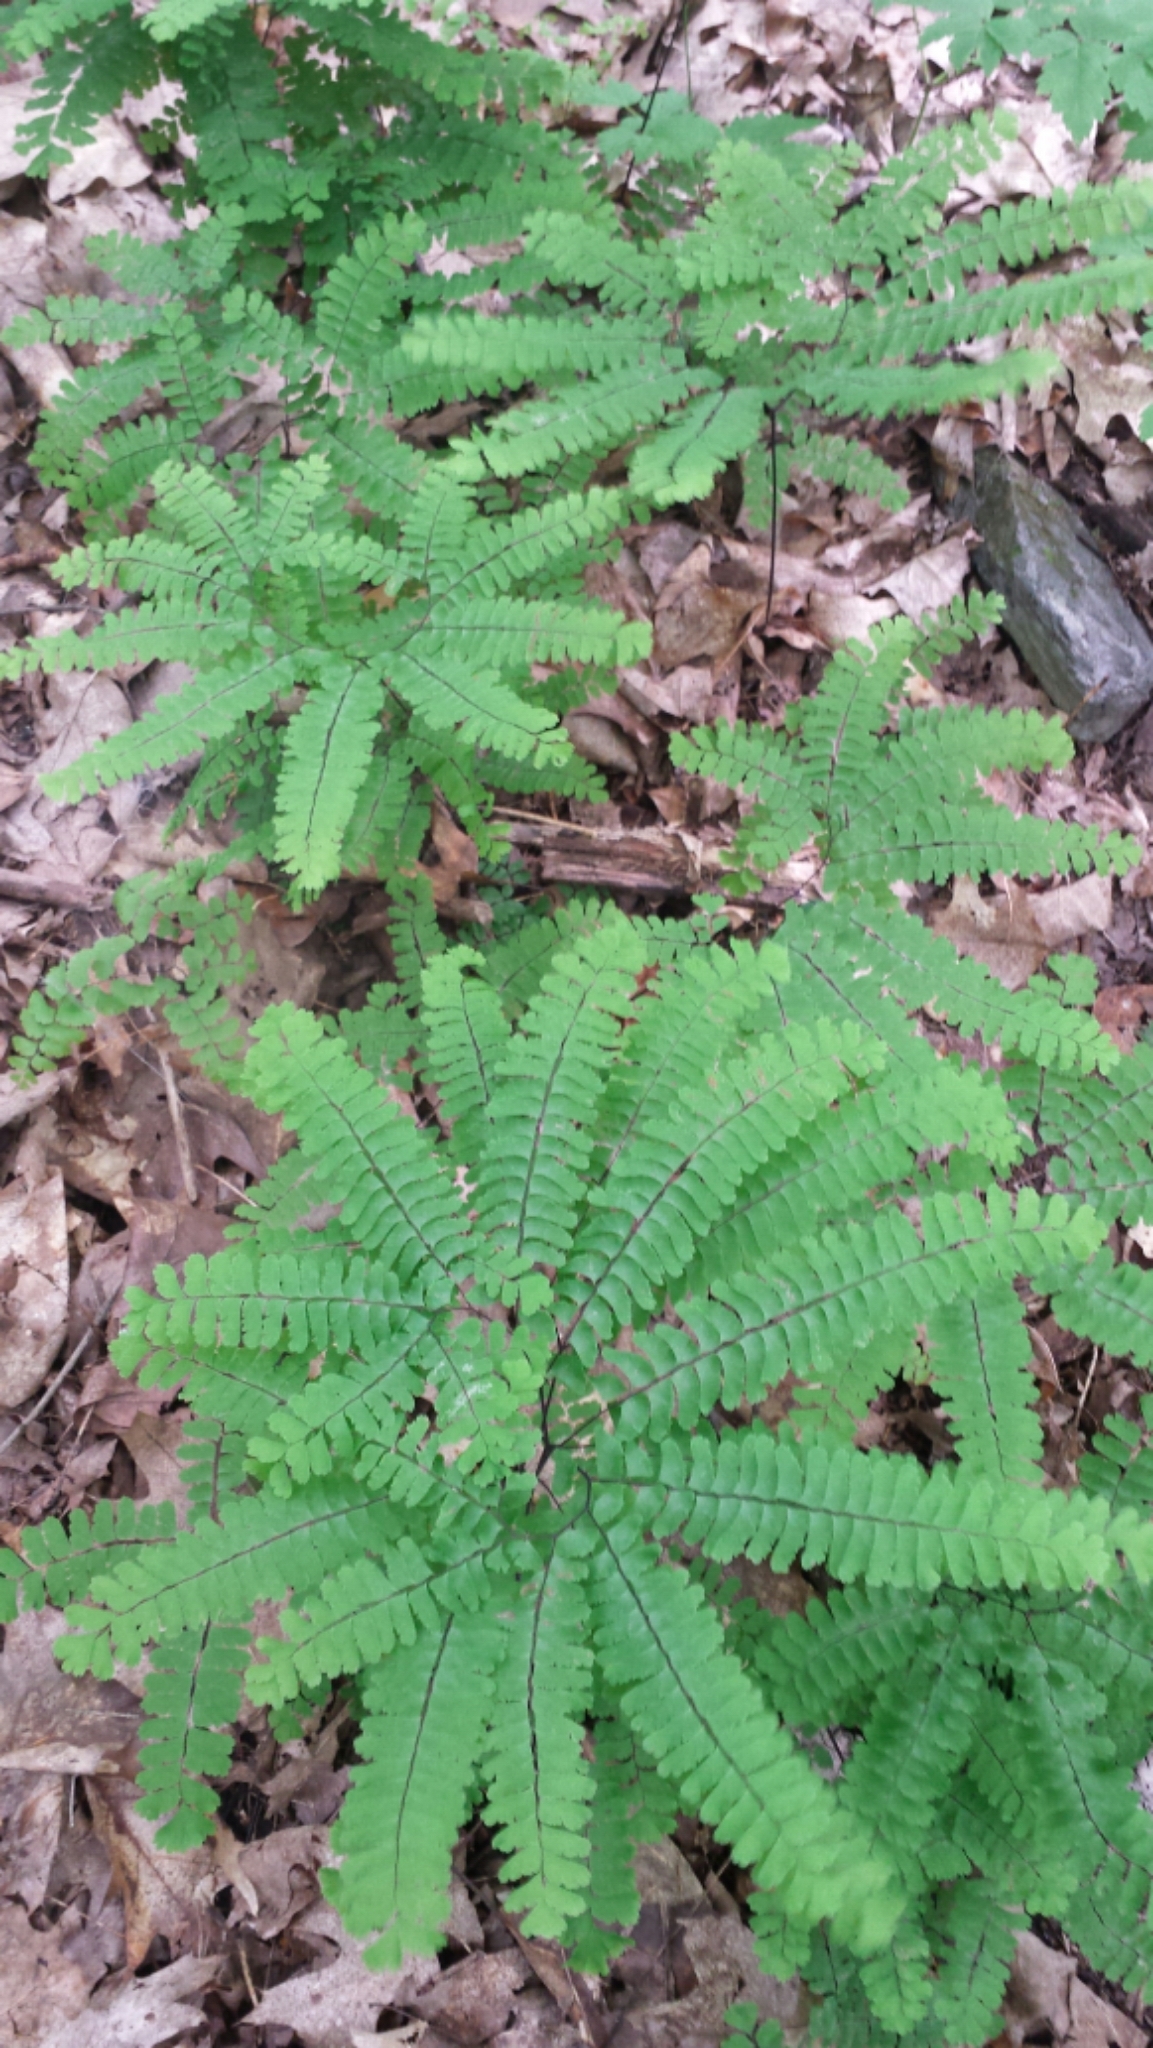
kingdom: Plantae
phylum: Tracheophyta
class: Polypodiopsida
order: Polypodiales
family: Pteridaceae
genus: Adiantum
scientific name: Adiantum pedatum
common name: Five-finger fern
